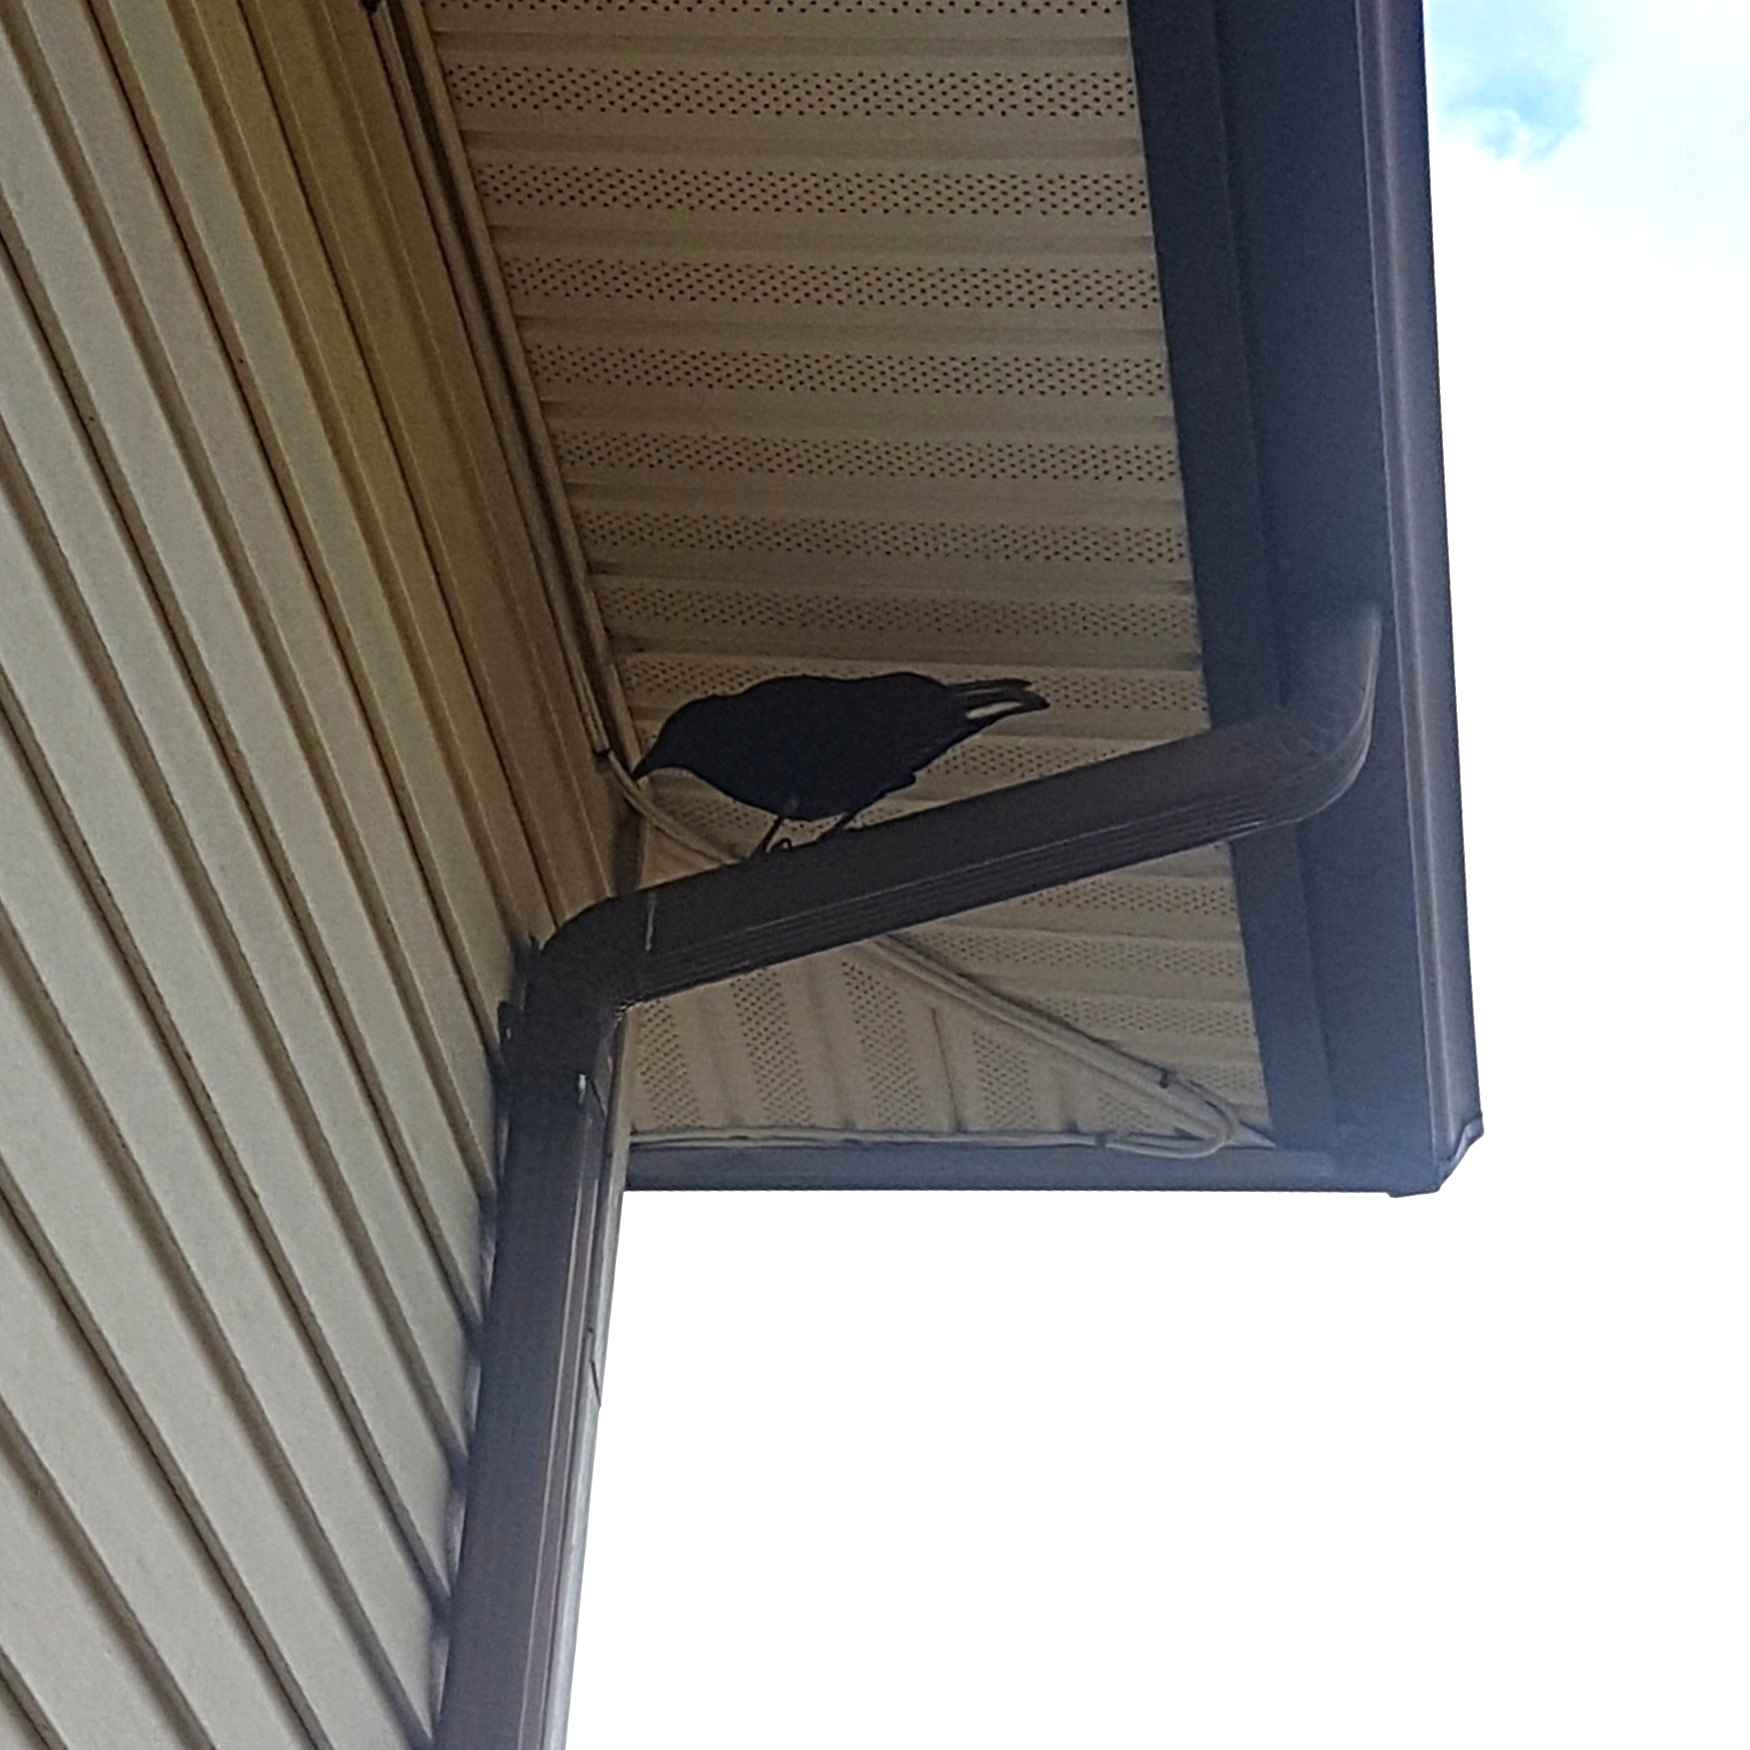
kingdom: Animalia
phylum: Chordata
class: Aves
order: Passeriformes
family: Corvidae
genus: Corvus
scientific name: Corvus brachyrhynchos
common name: American crow
